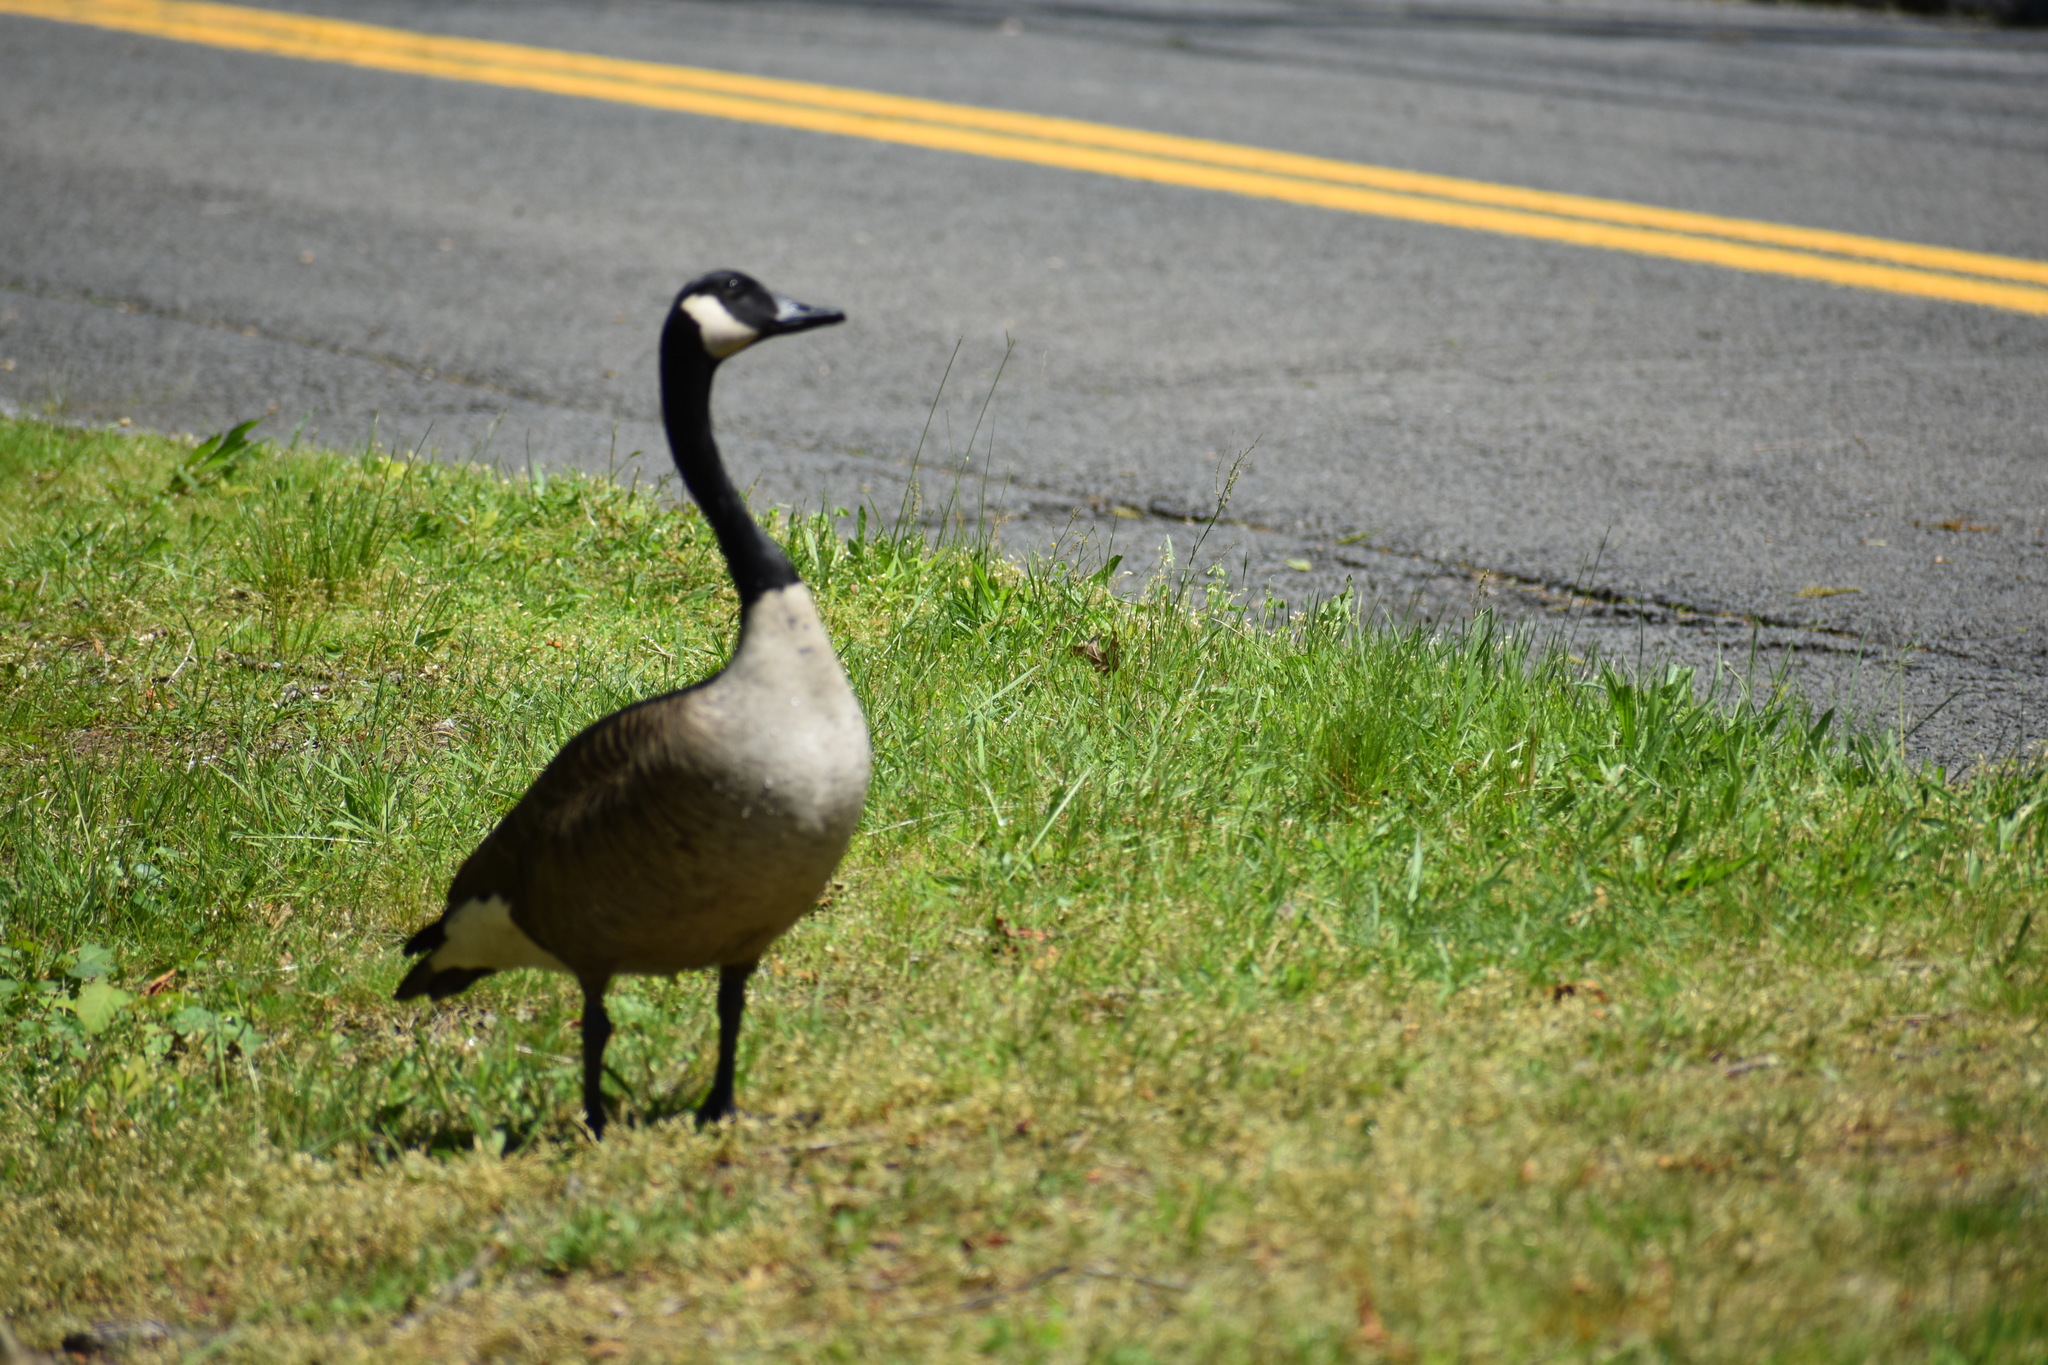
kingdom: Animalia
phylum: Chordata
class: Aves
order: Anseriformes
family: Anatidae
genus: Branta
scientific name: Branta canadensis
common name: Canada goose
